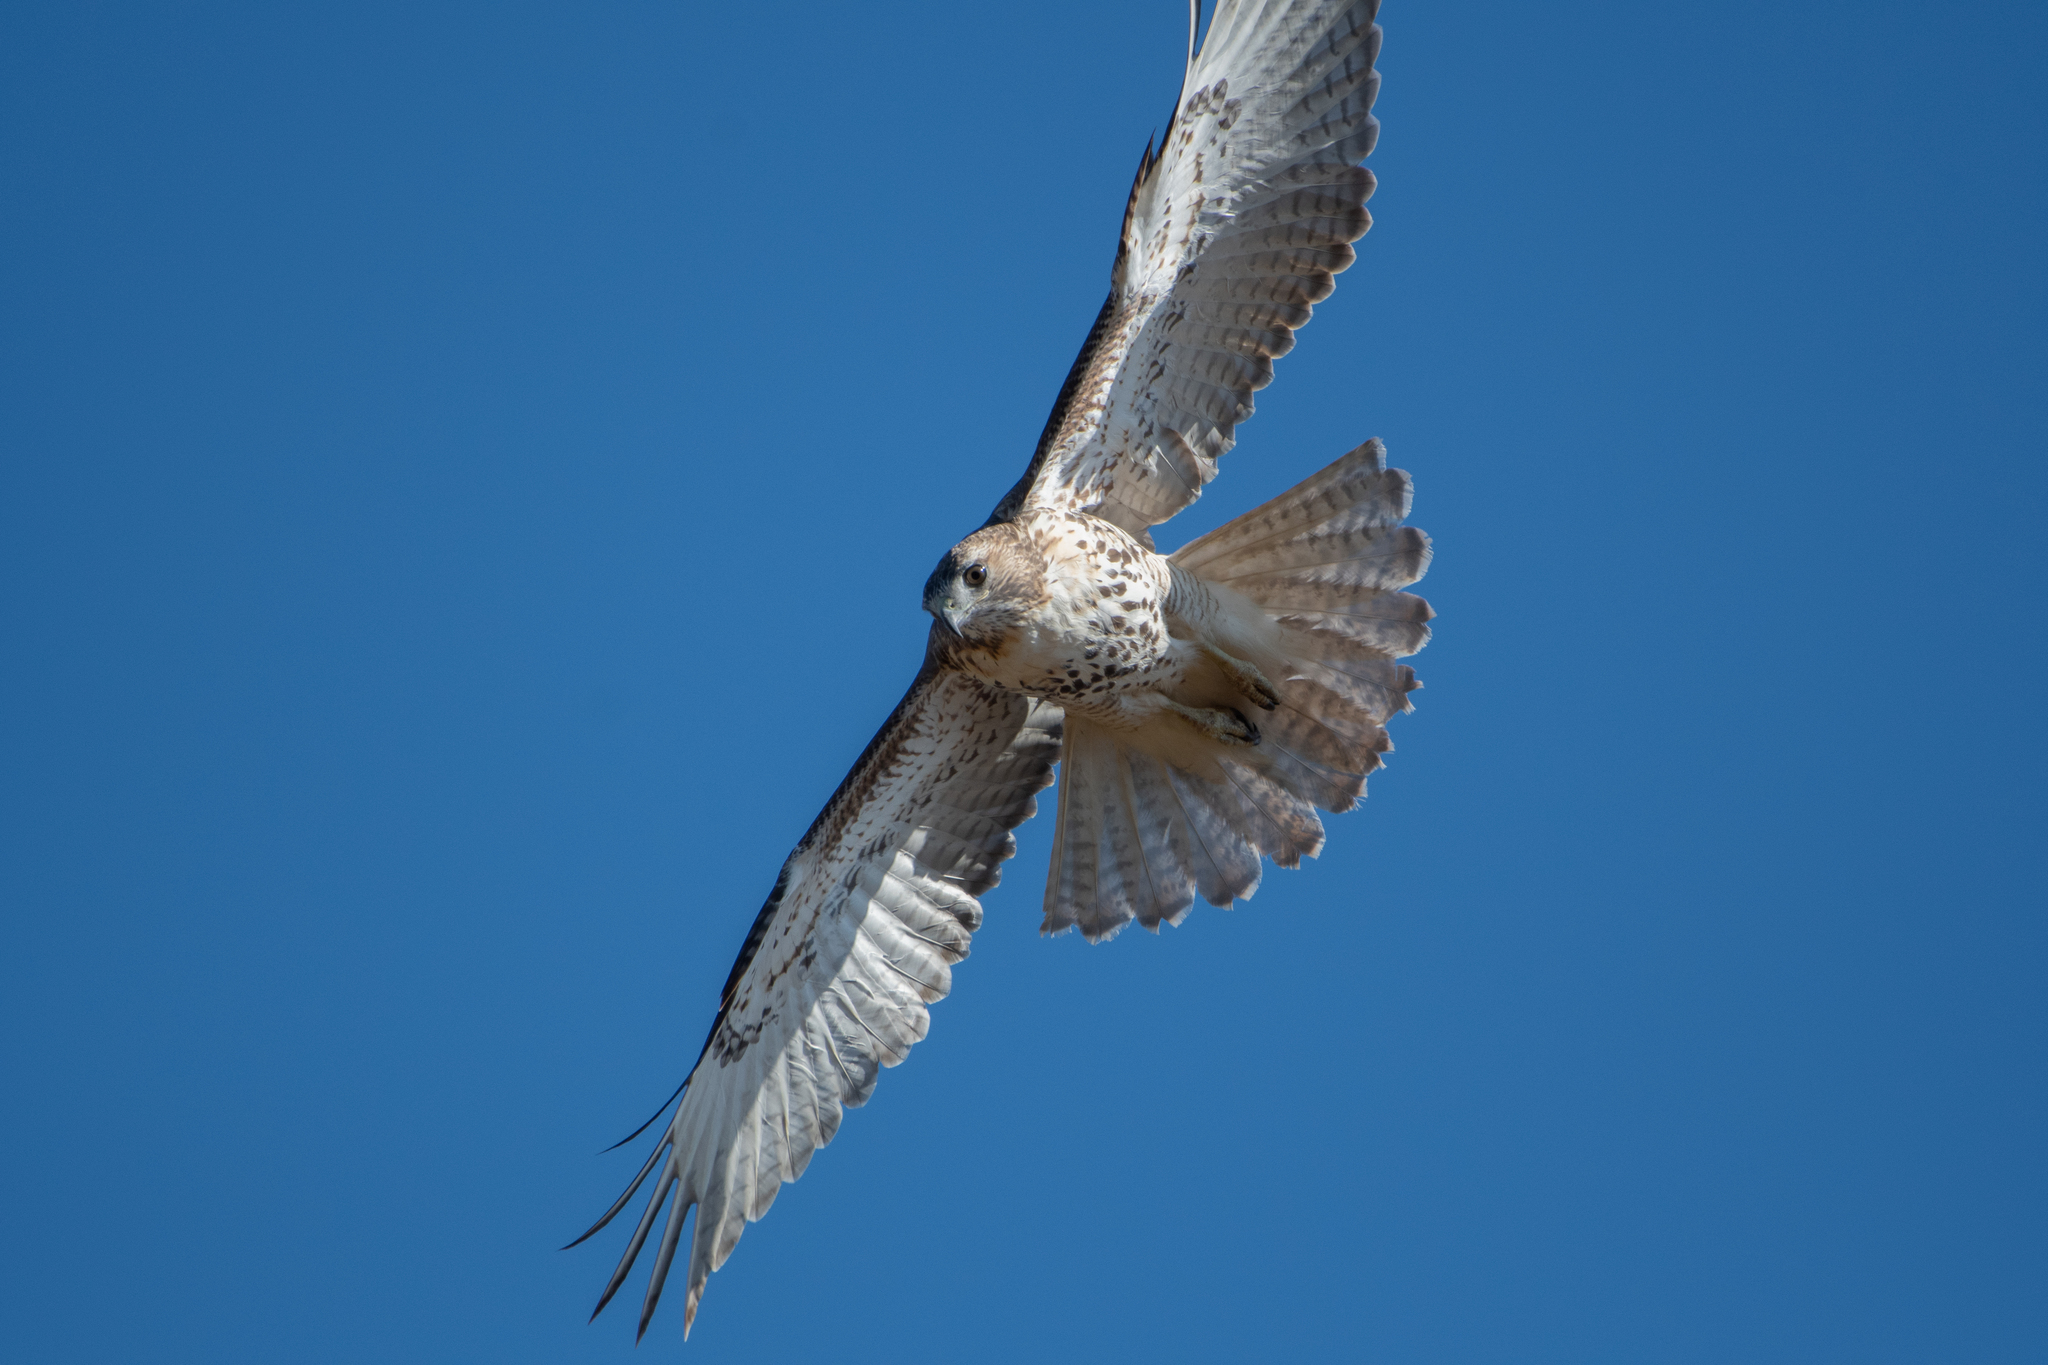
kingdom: Animalia
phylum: Chordata
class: Aves
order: Accipitriformes
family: Accipitridae
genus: Buteo
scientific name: Buteo jamaicensis
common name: Red-tailed hawk
